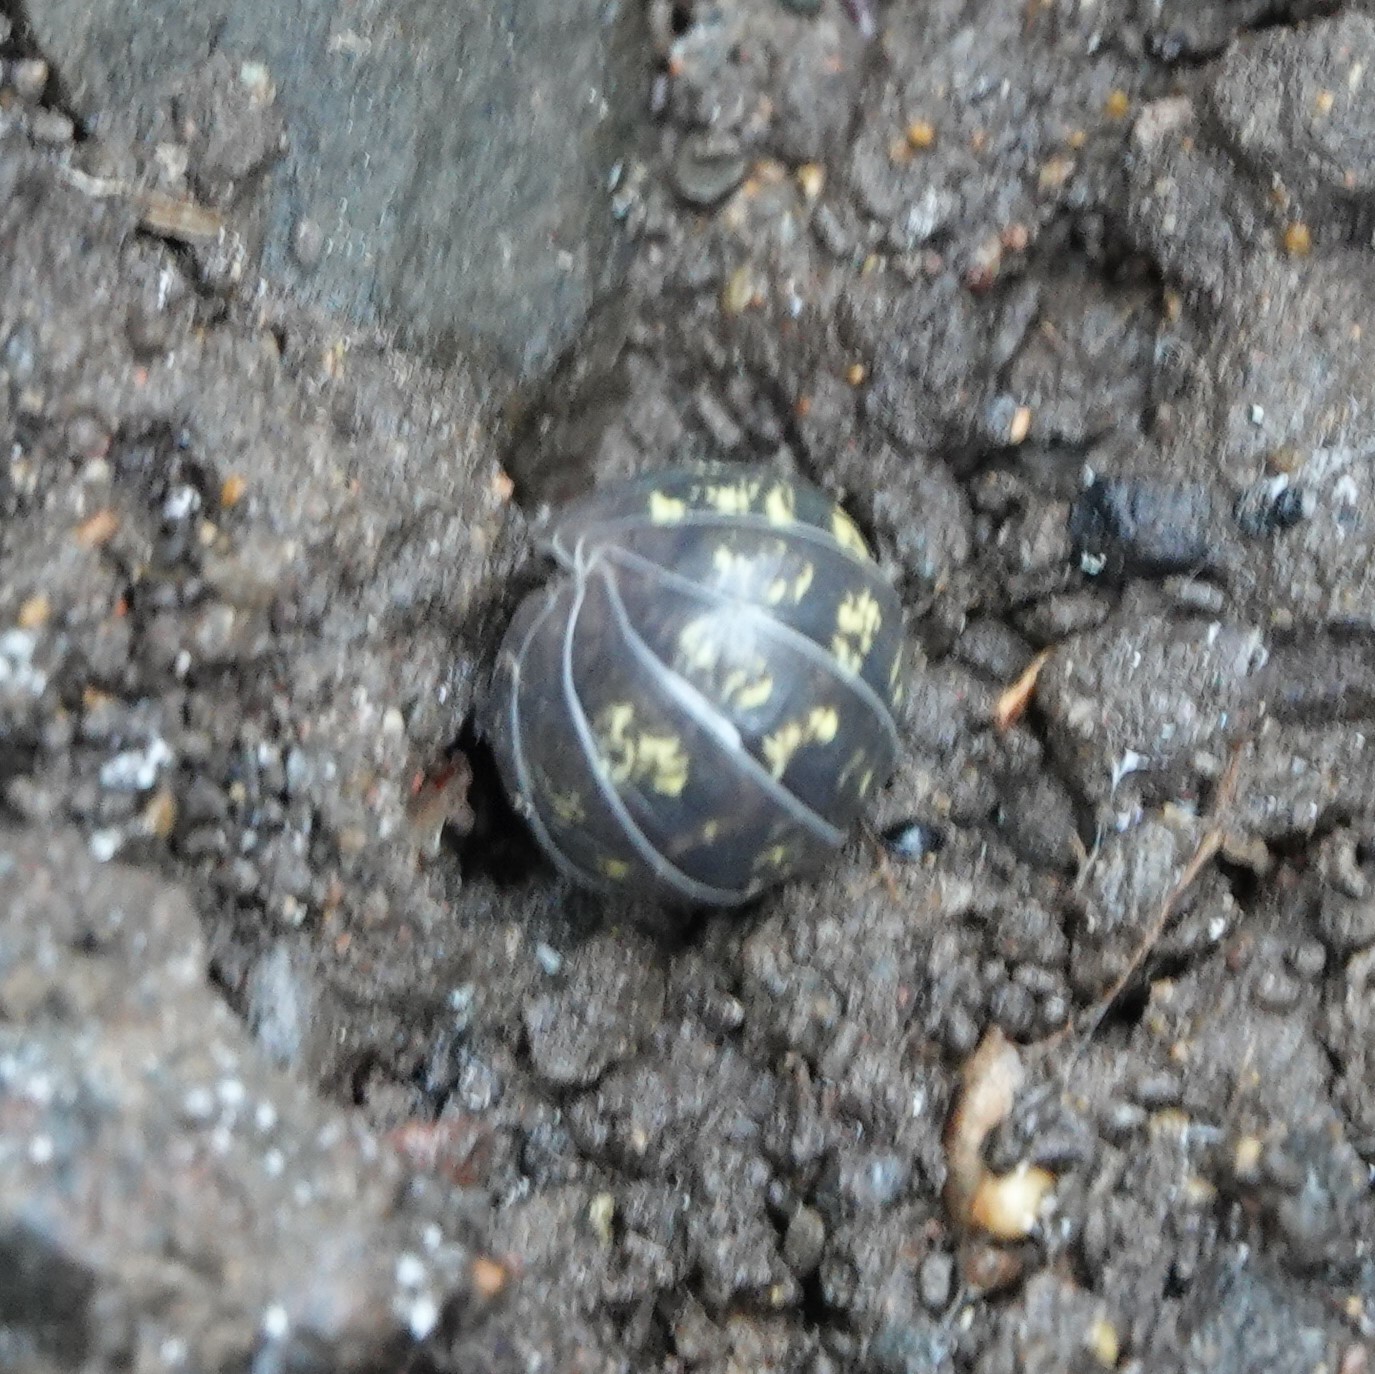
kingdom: Animalia
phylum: Arthropoda
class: Malacostraca
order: Isopoda
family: Armadillidiidae
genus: Armadillidium
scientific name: Armadillidium vulgare
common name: Common pill woodlouse
